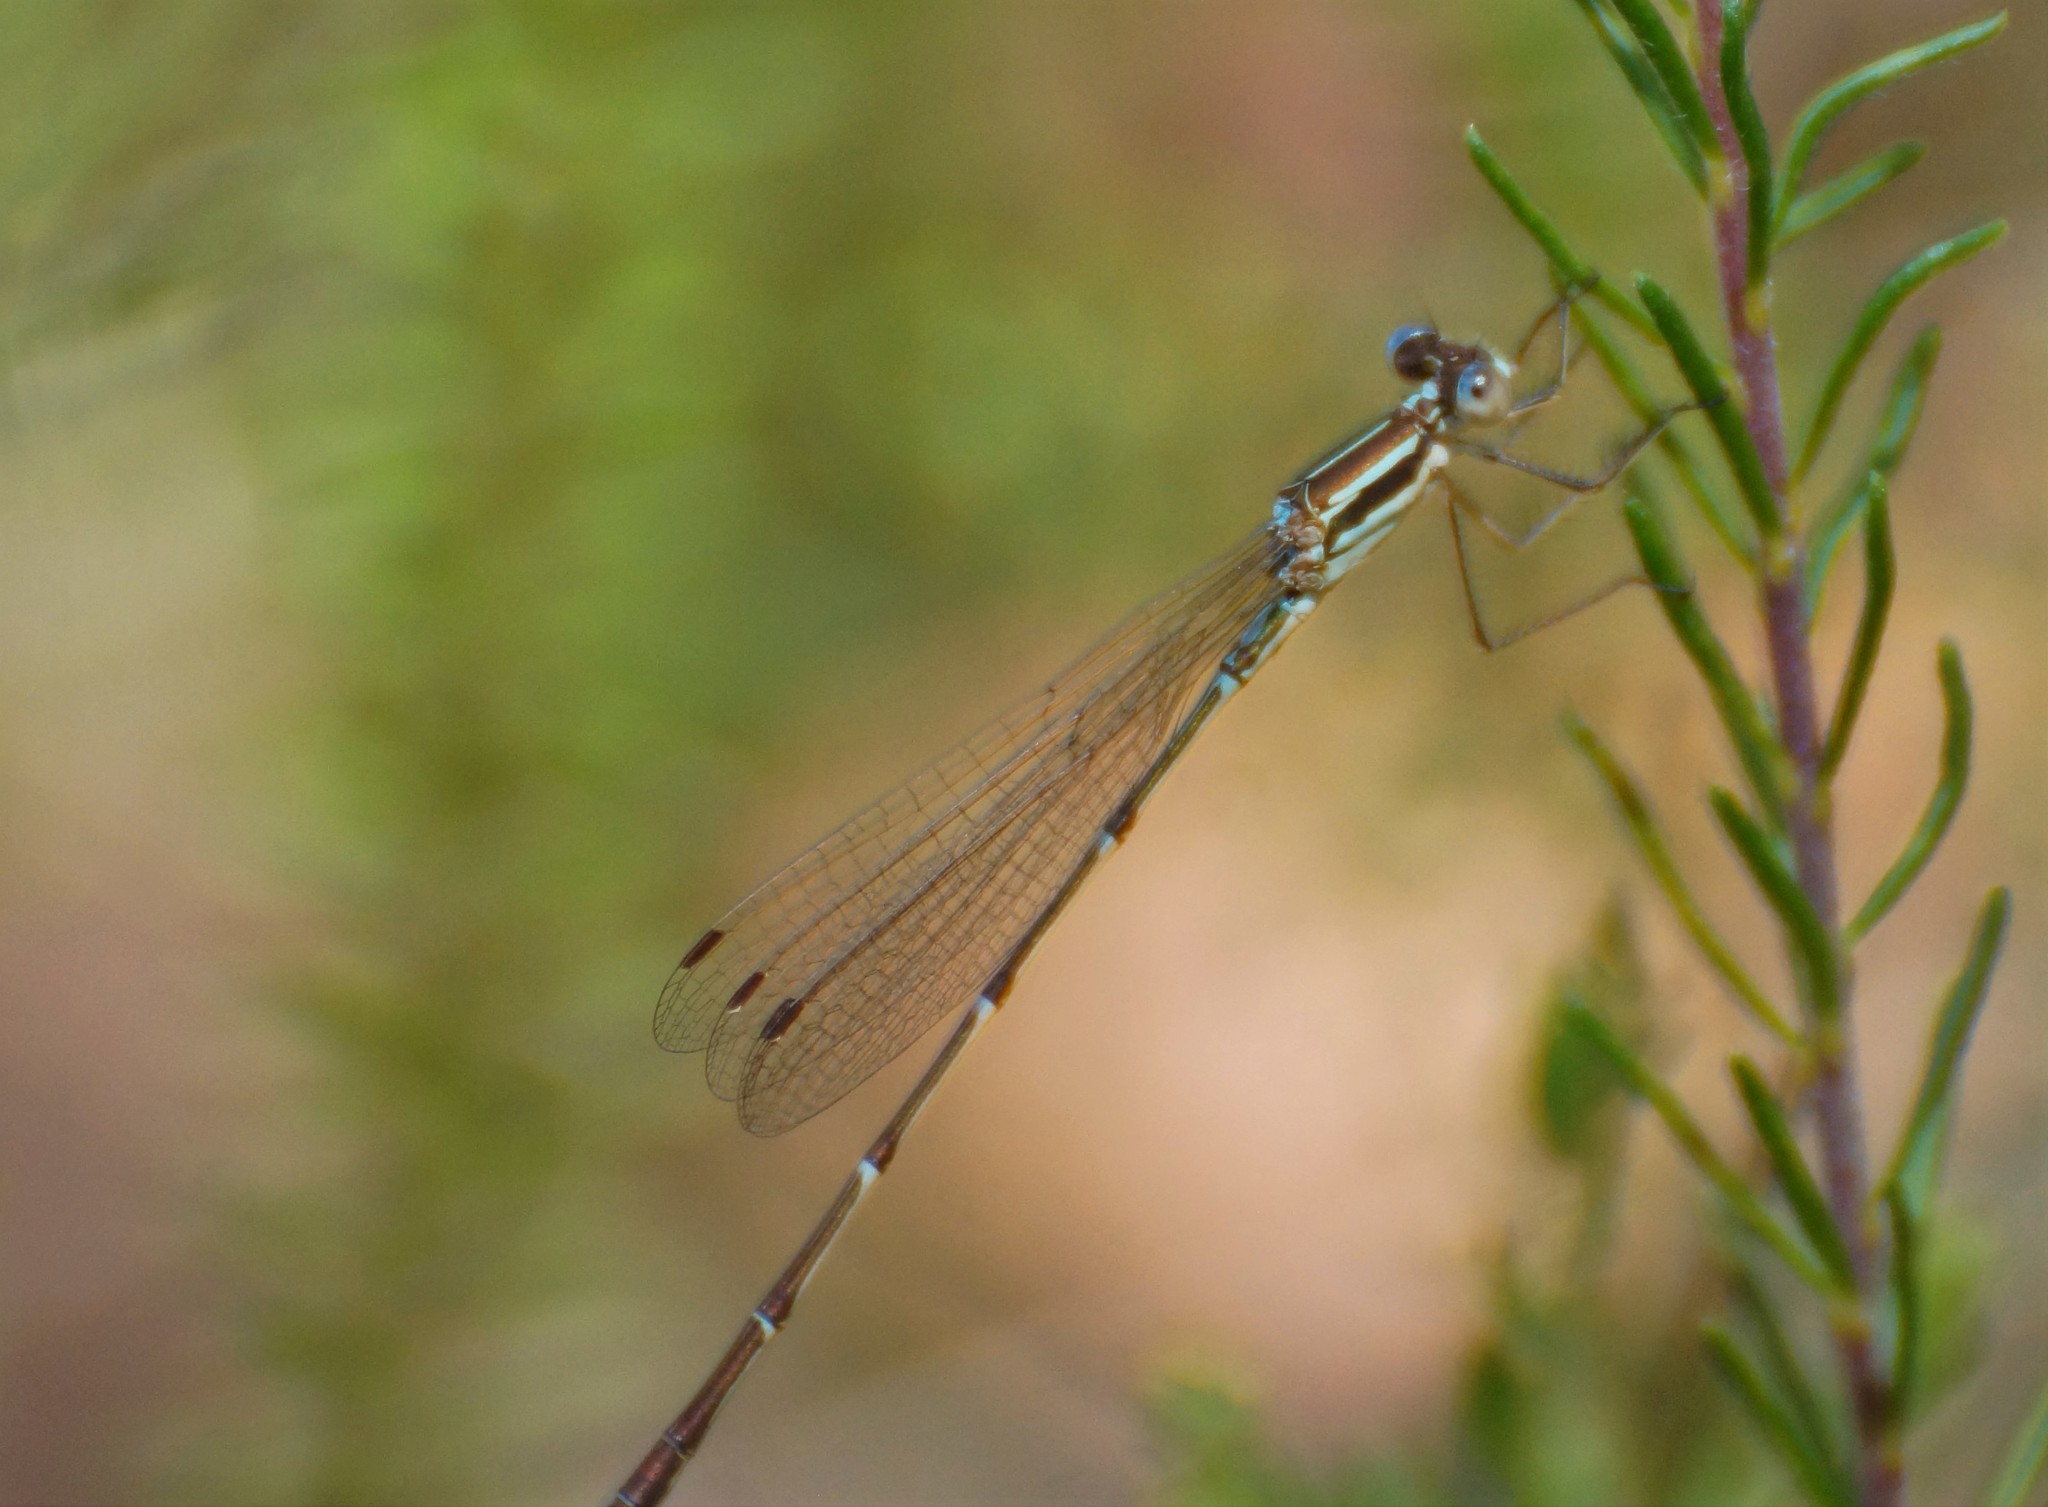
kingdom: Animalia
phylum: Arthropoda
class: Insecta
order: Odonata
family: Lestidae
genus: Austrolestes
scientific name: Austrolestes analis
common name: Slender ringtail
